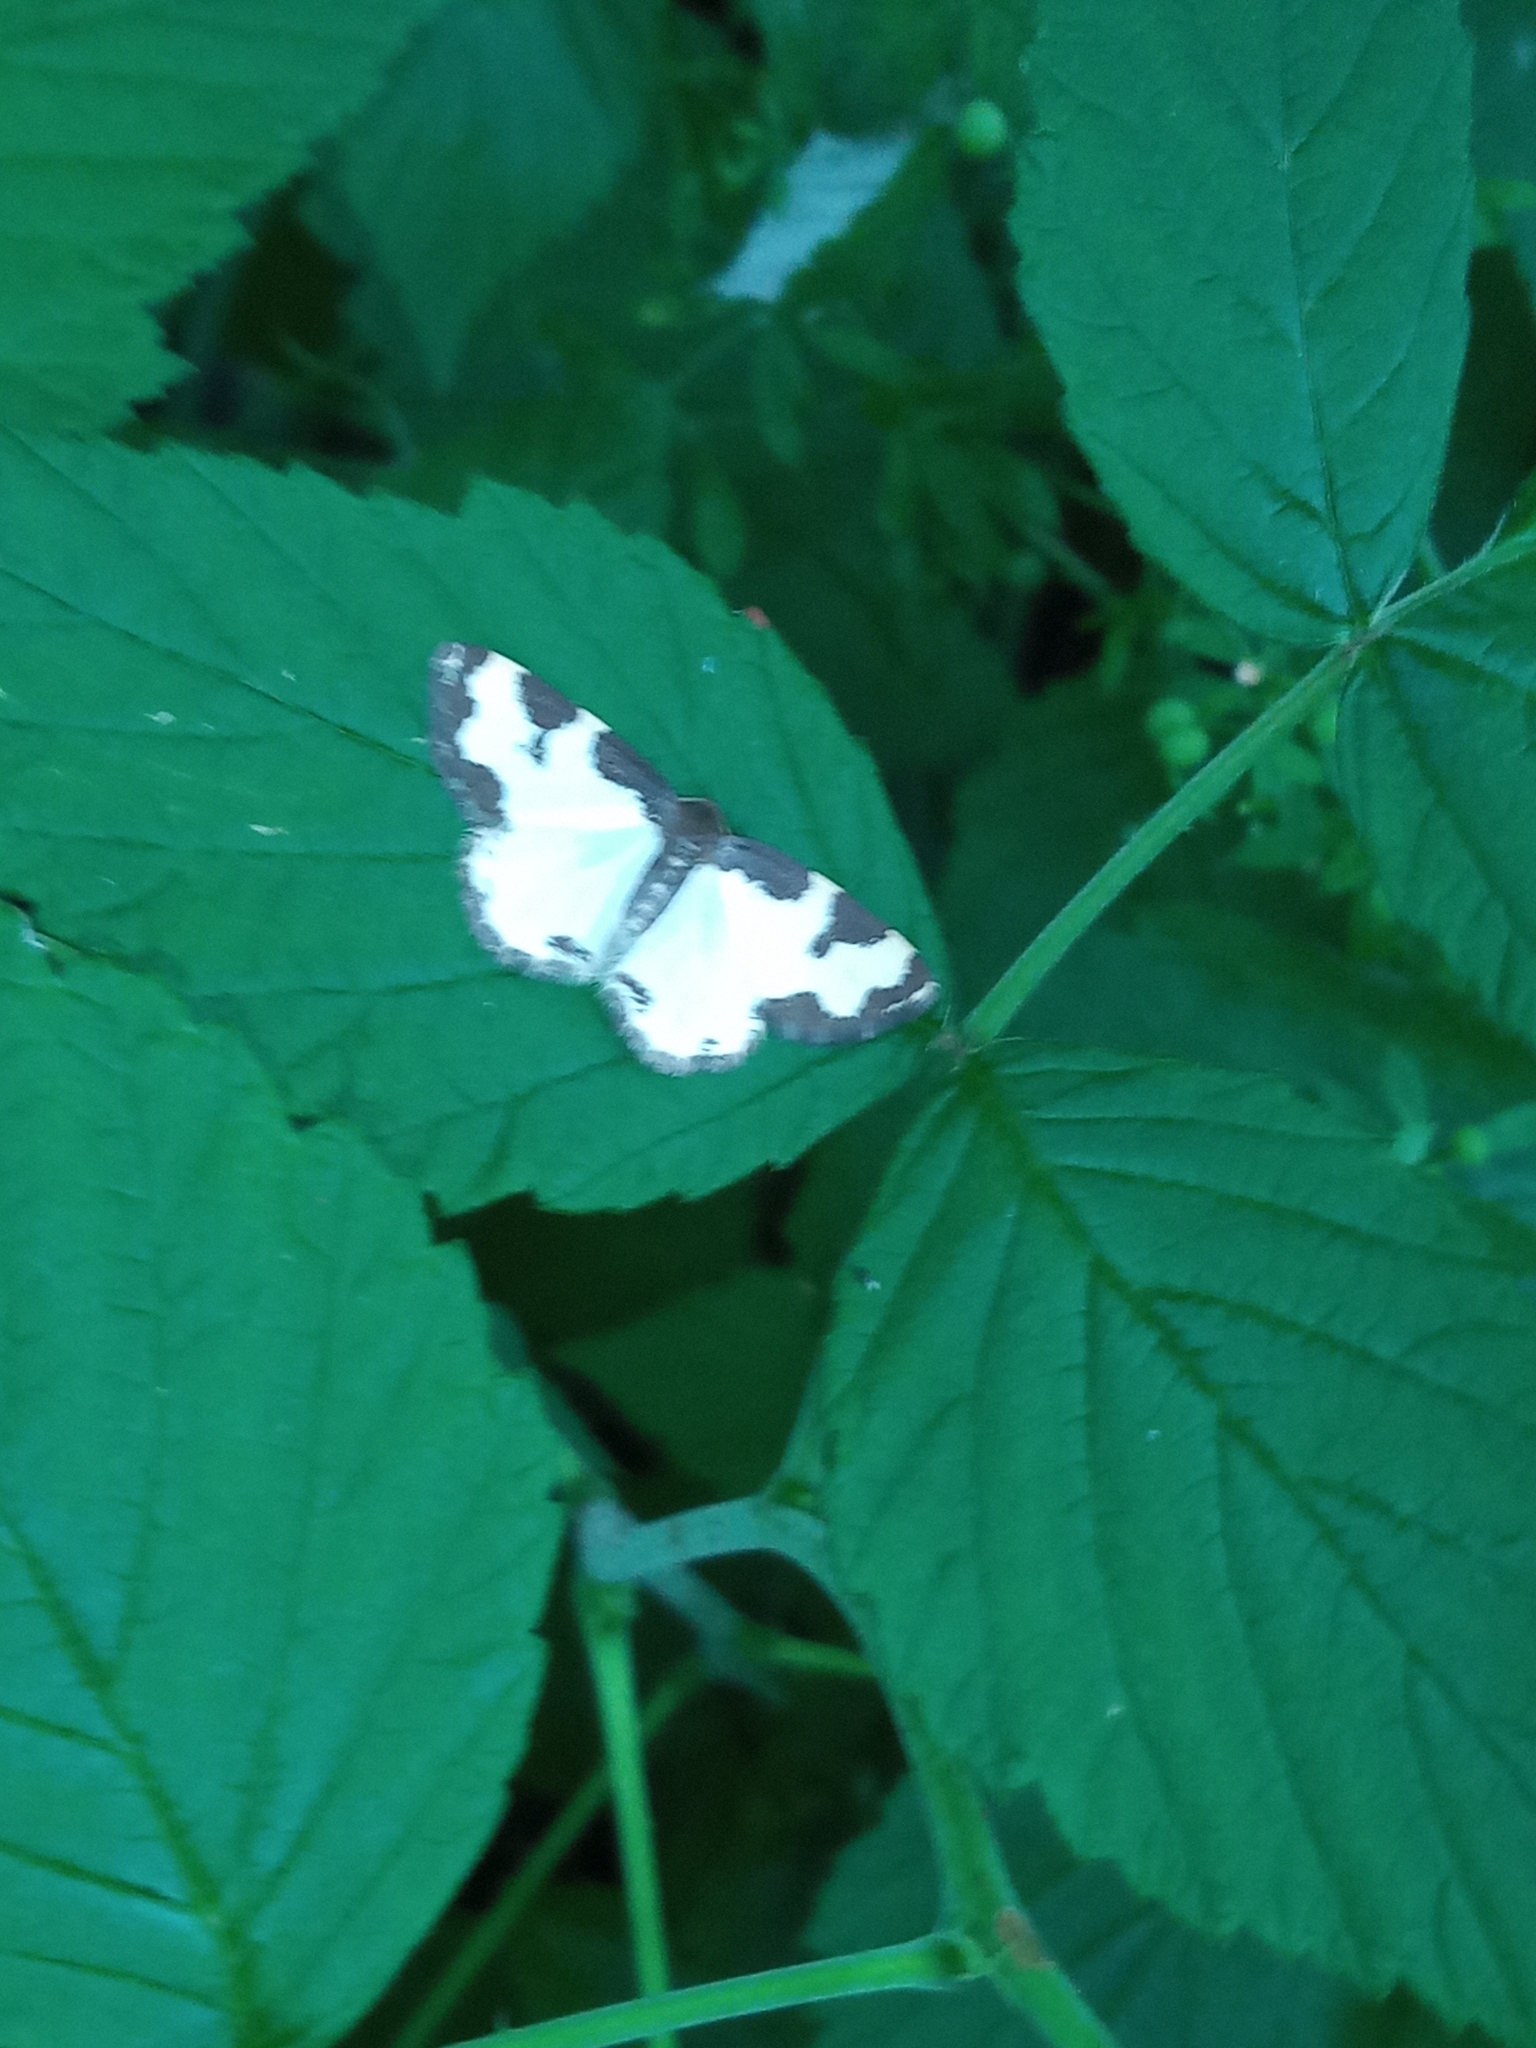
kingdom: Animalia
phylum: Arthropoda
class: Insecta
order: Lepidoptera
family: Geometridae
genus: Lomaspilis
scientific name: Lomaspilis marginata
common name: Clouded border
